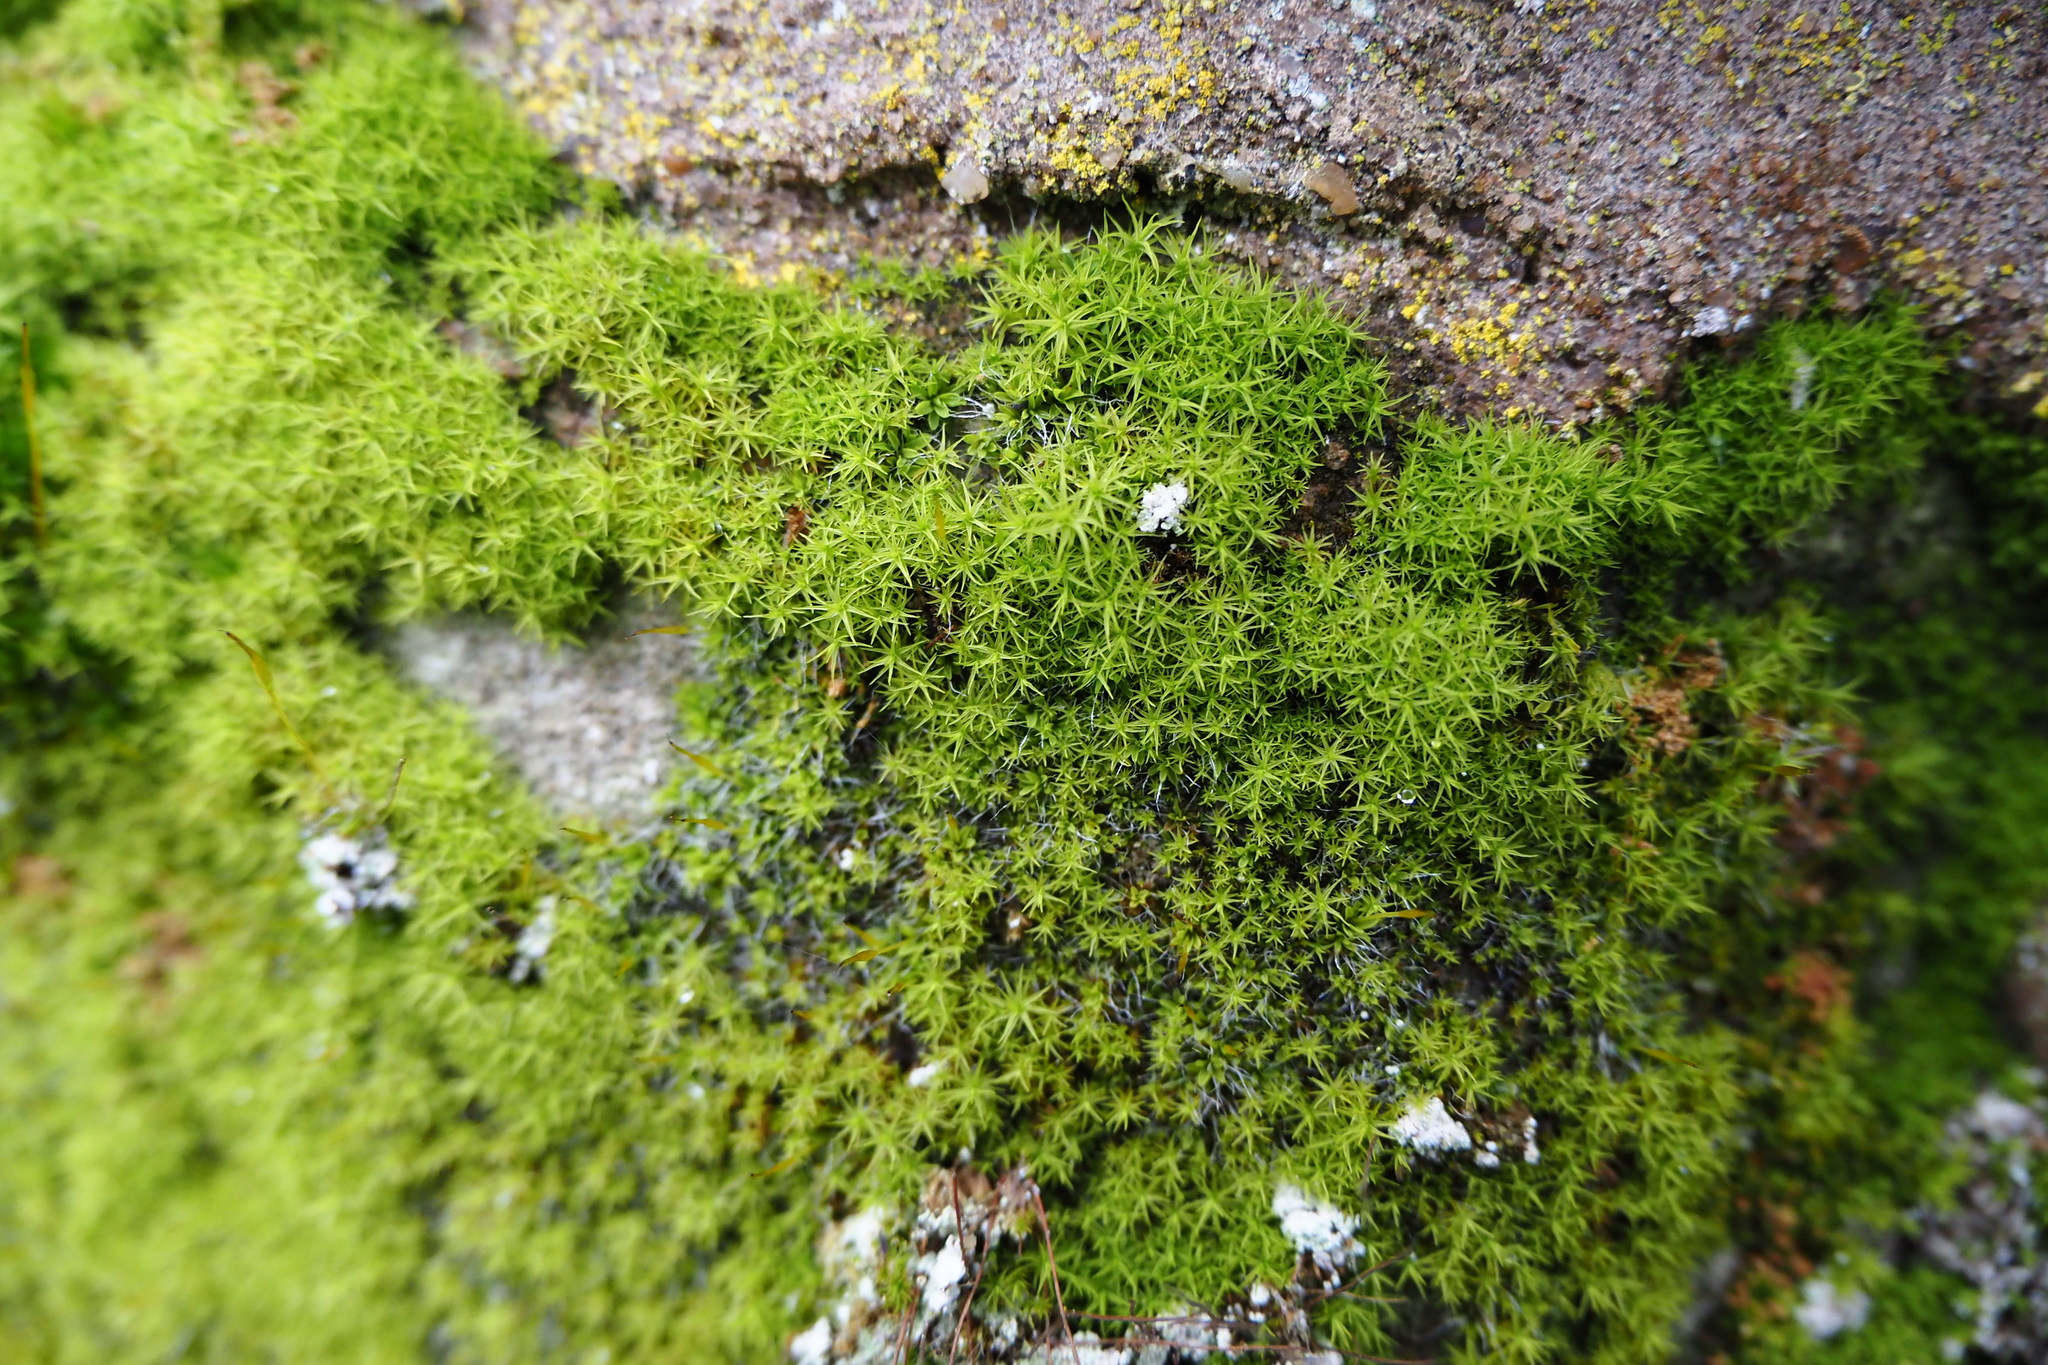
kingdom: Plantae
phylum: Bryophyta
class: Bryopsida
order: Pottiales
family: Pottiaceae
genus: Bryoerythrophyllum
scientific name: Bryoerythrophyllum recurvirostrum
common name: Red beard moss
